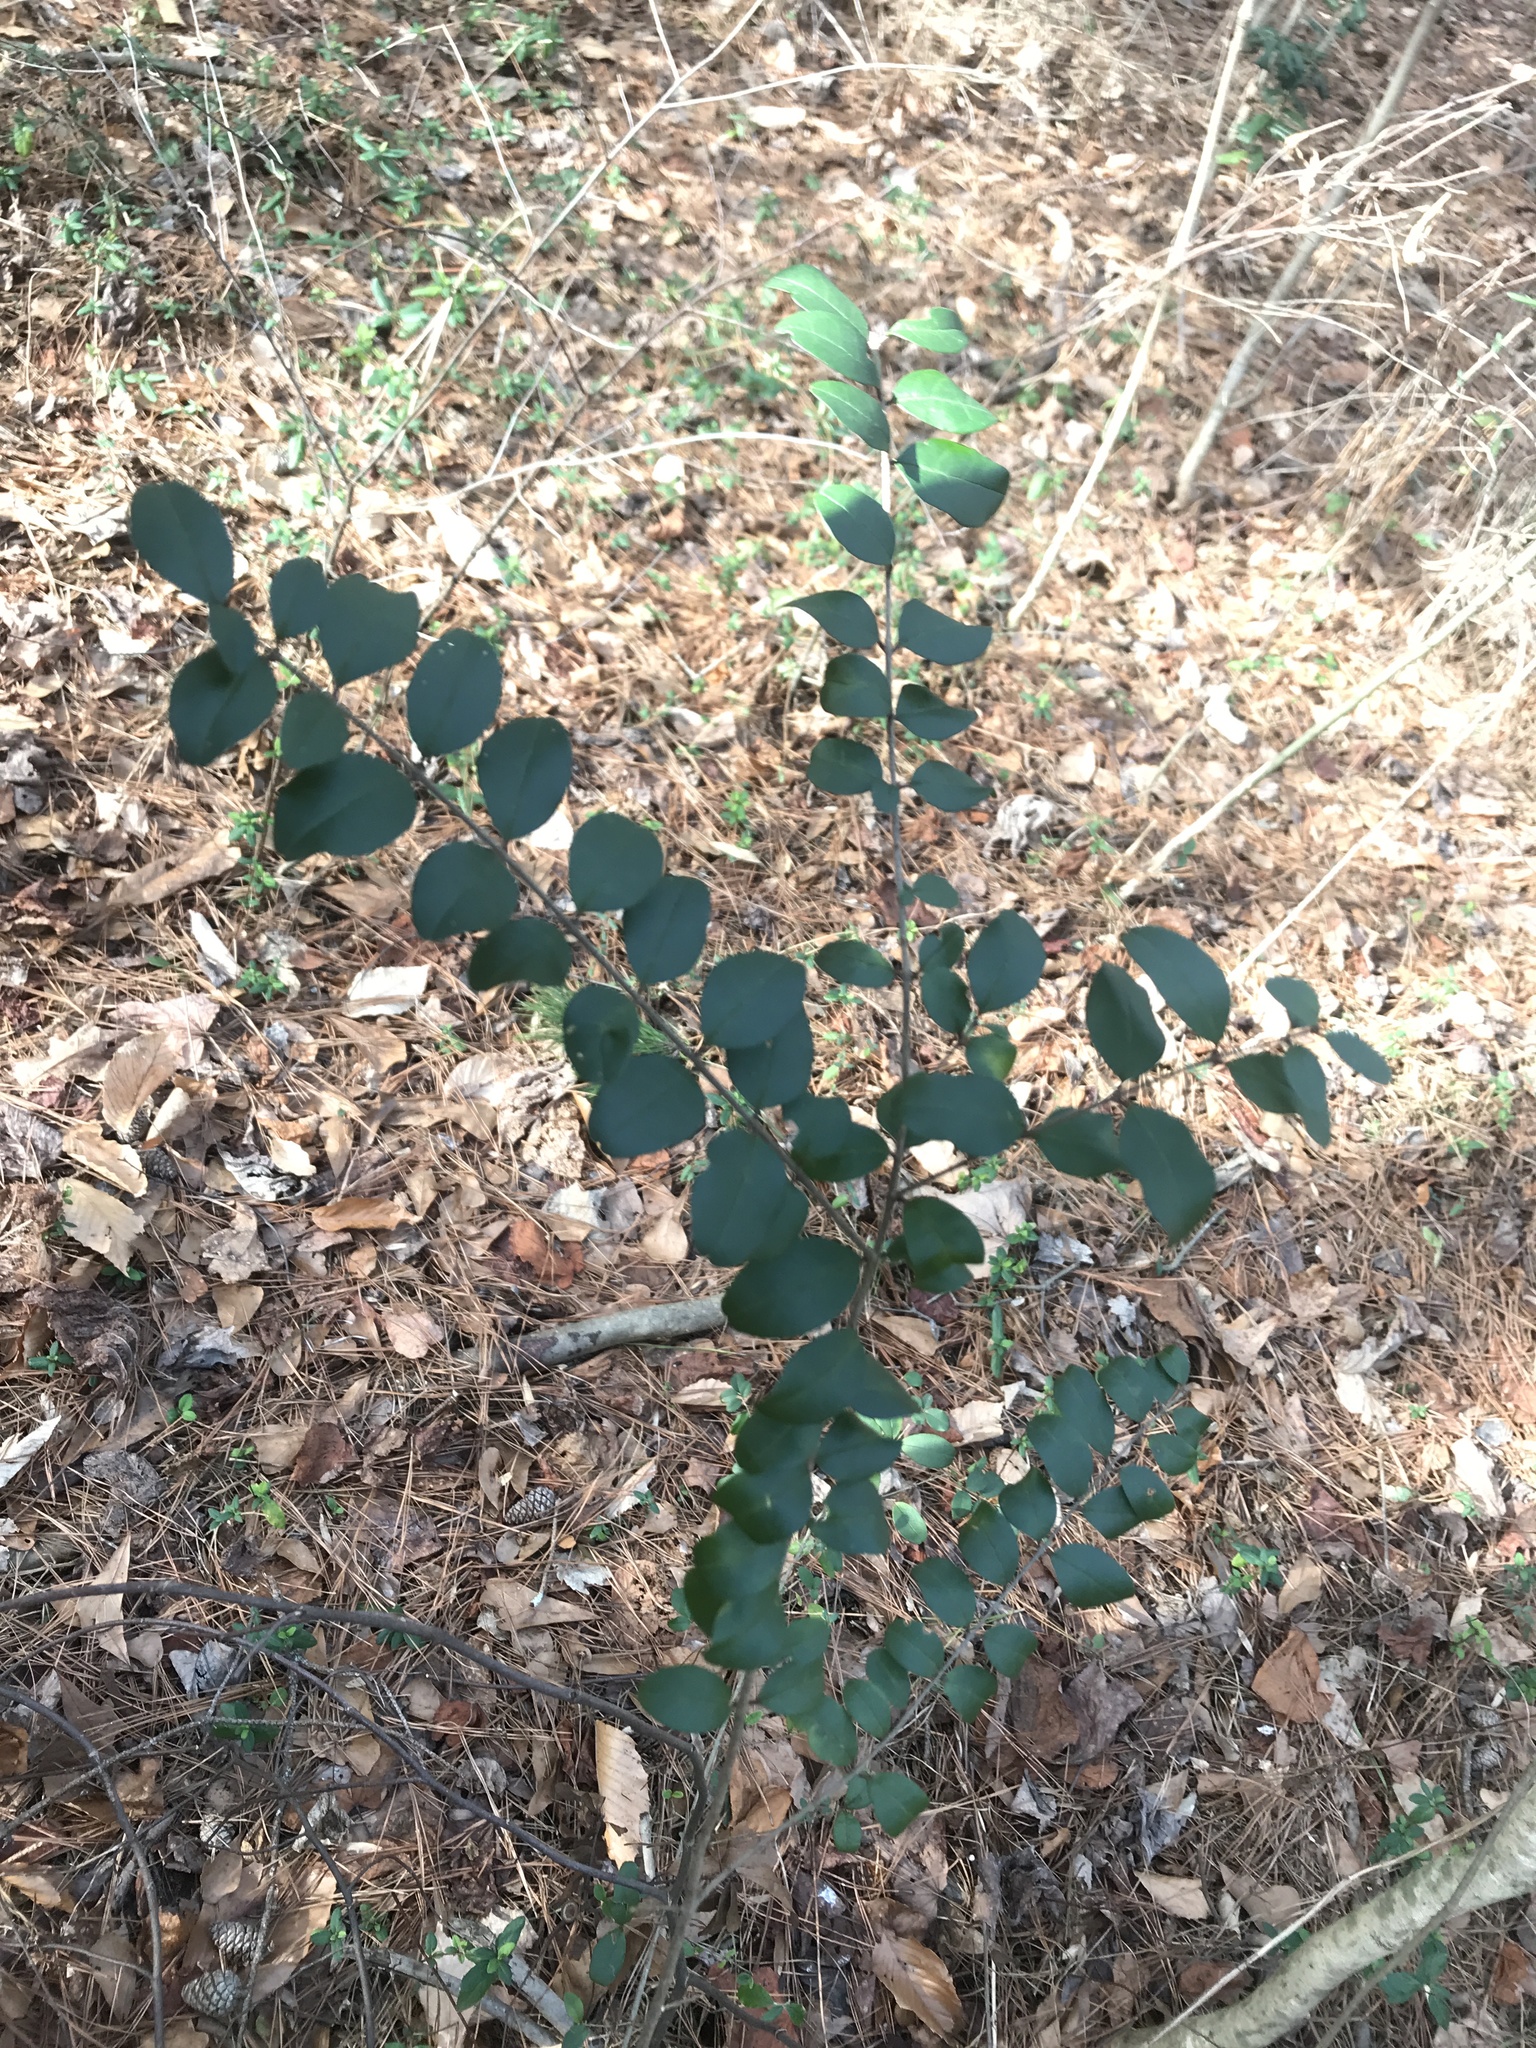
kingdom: Plantae
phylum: Tracheophyta
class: Magnoliopsida
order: Lamiales
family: Oleaceae
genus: Ligustrum
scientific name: Ligustrum sinense
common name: Chinese privet
